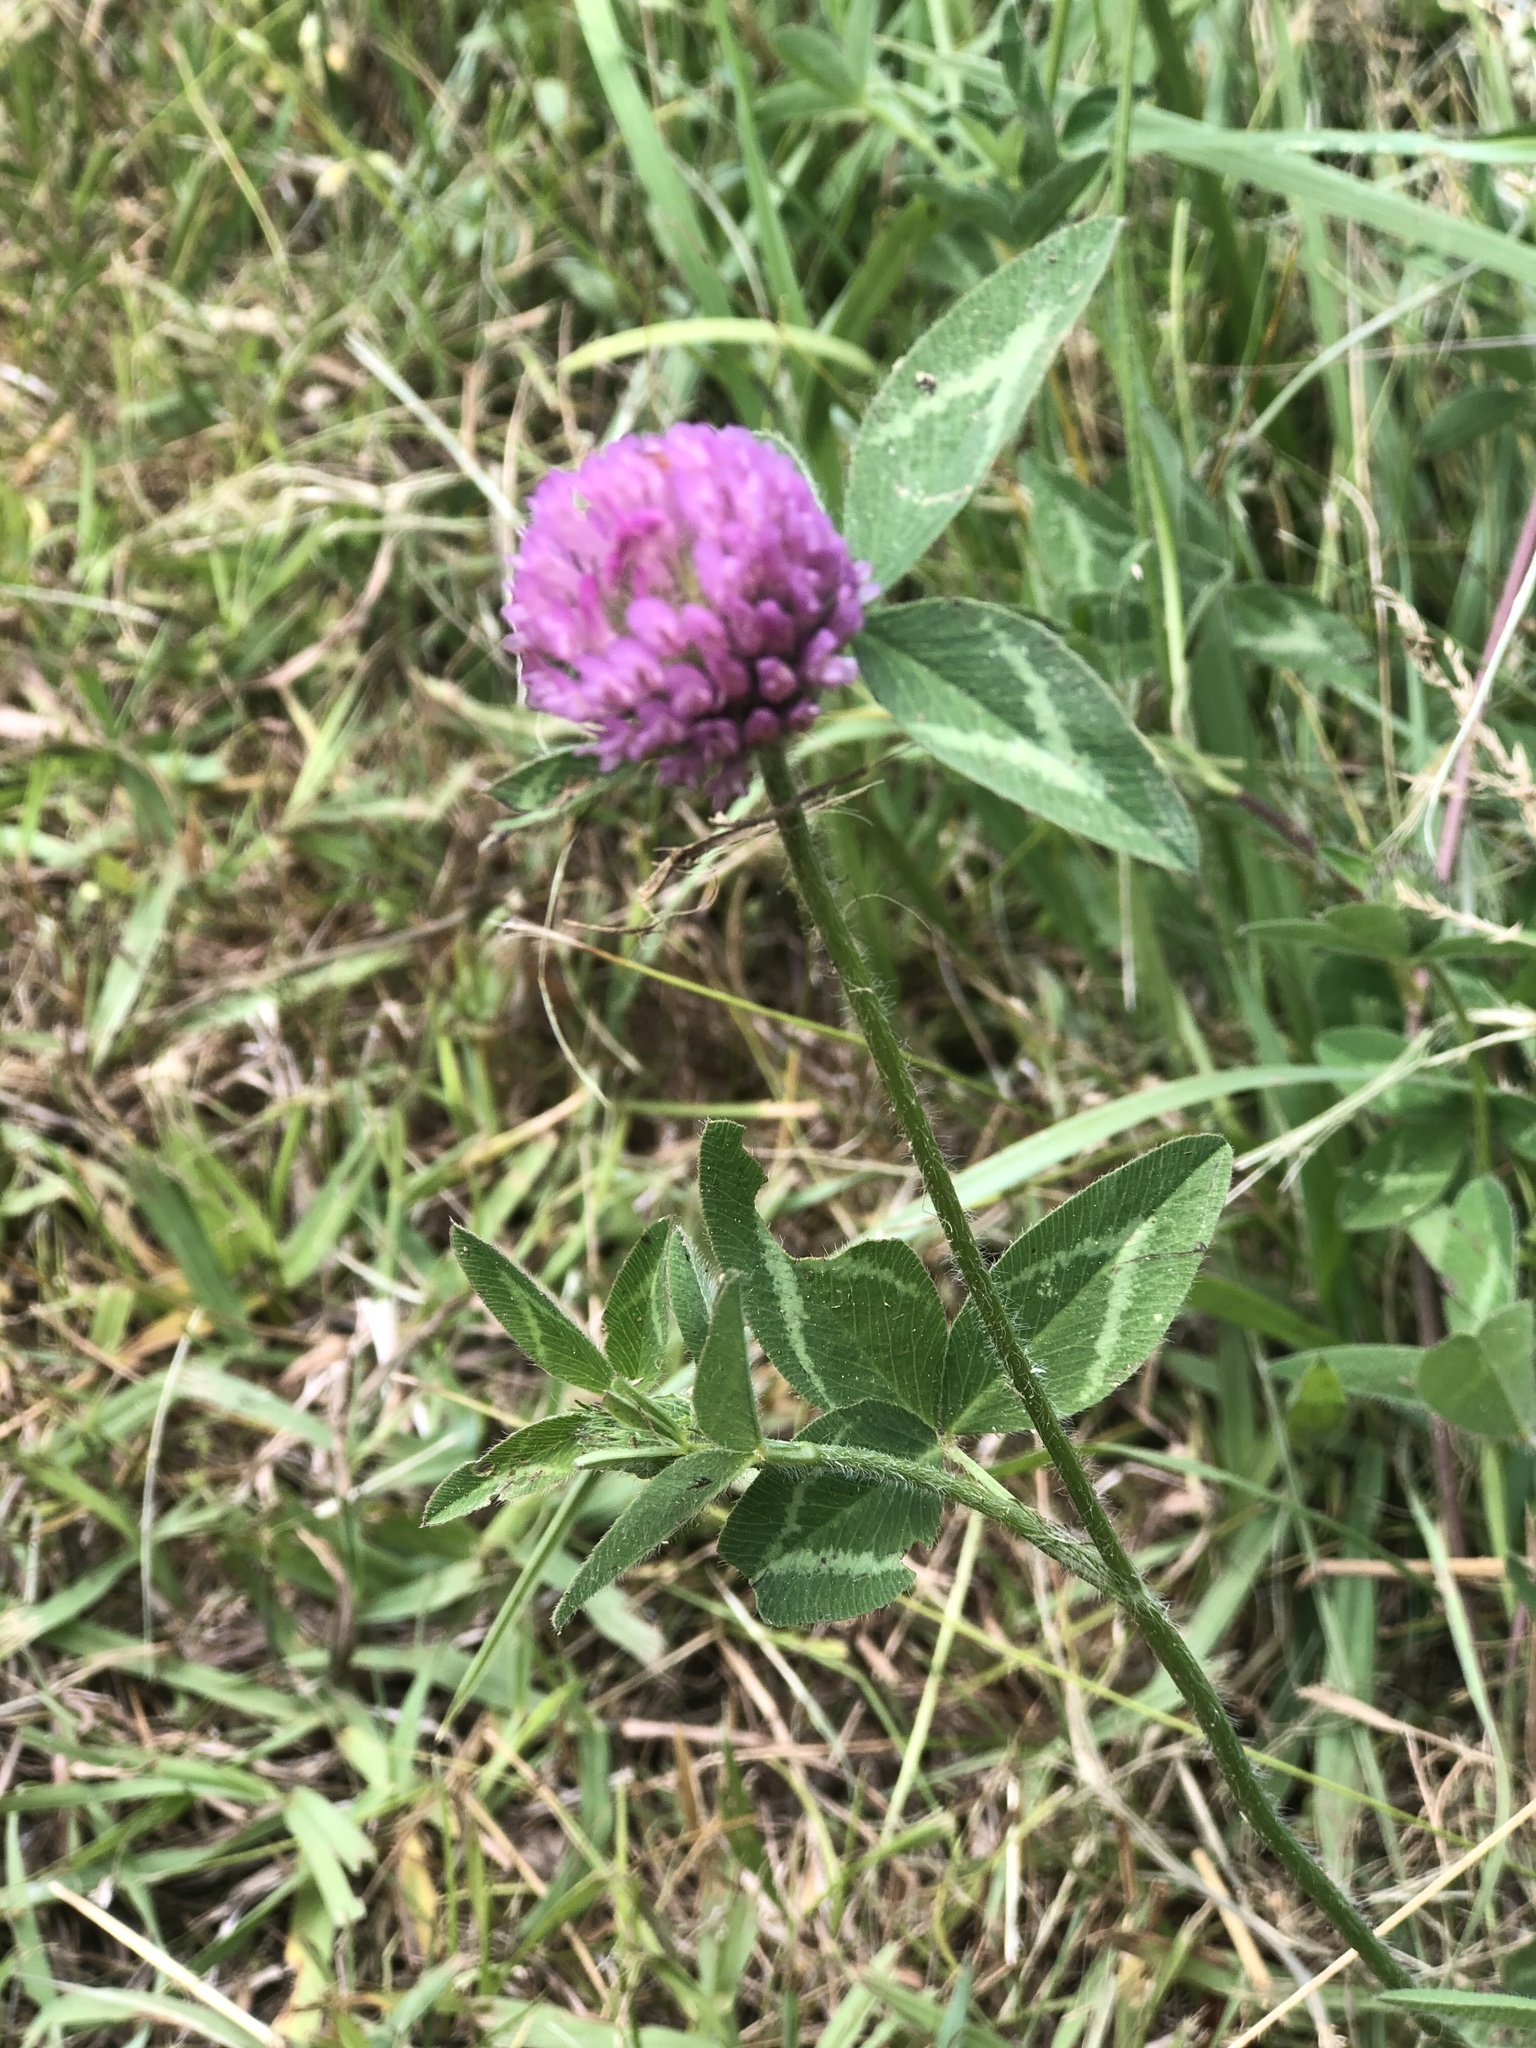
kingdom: Plantae
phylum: Tracheophyta
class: Magnoliopsida
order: Fabales
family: Fabaceae
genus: Trifolium
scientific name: Trifolium pratense
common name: Red clover
